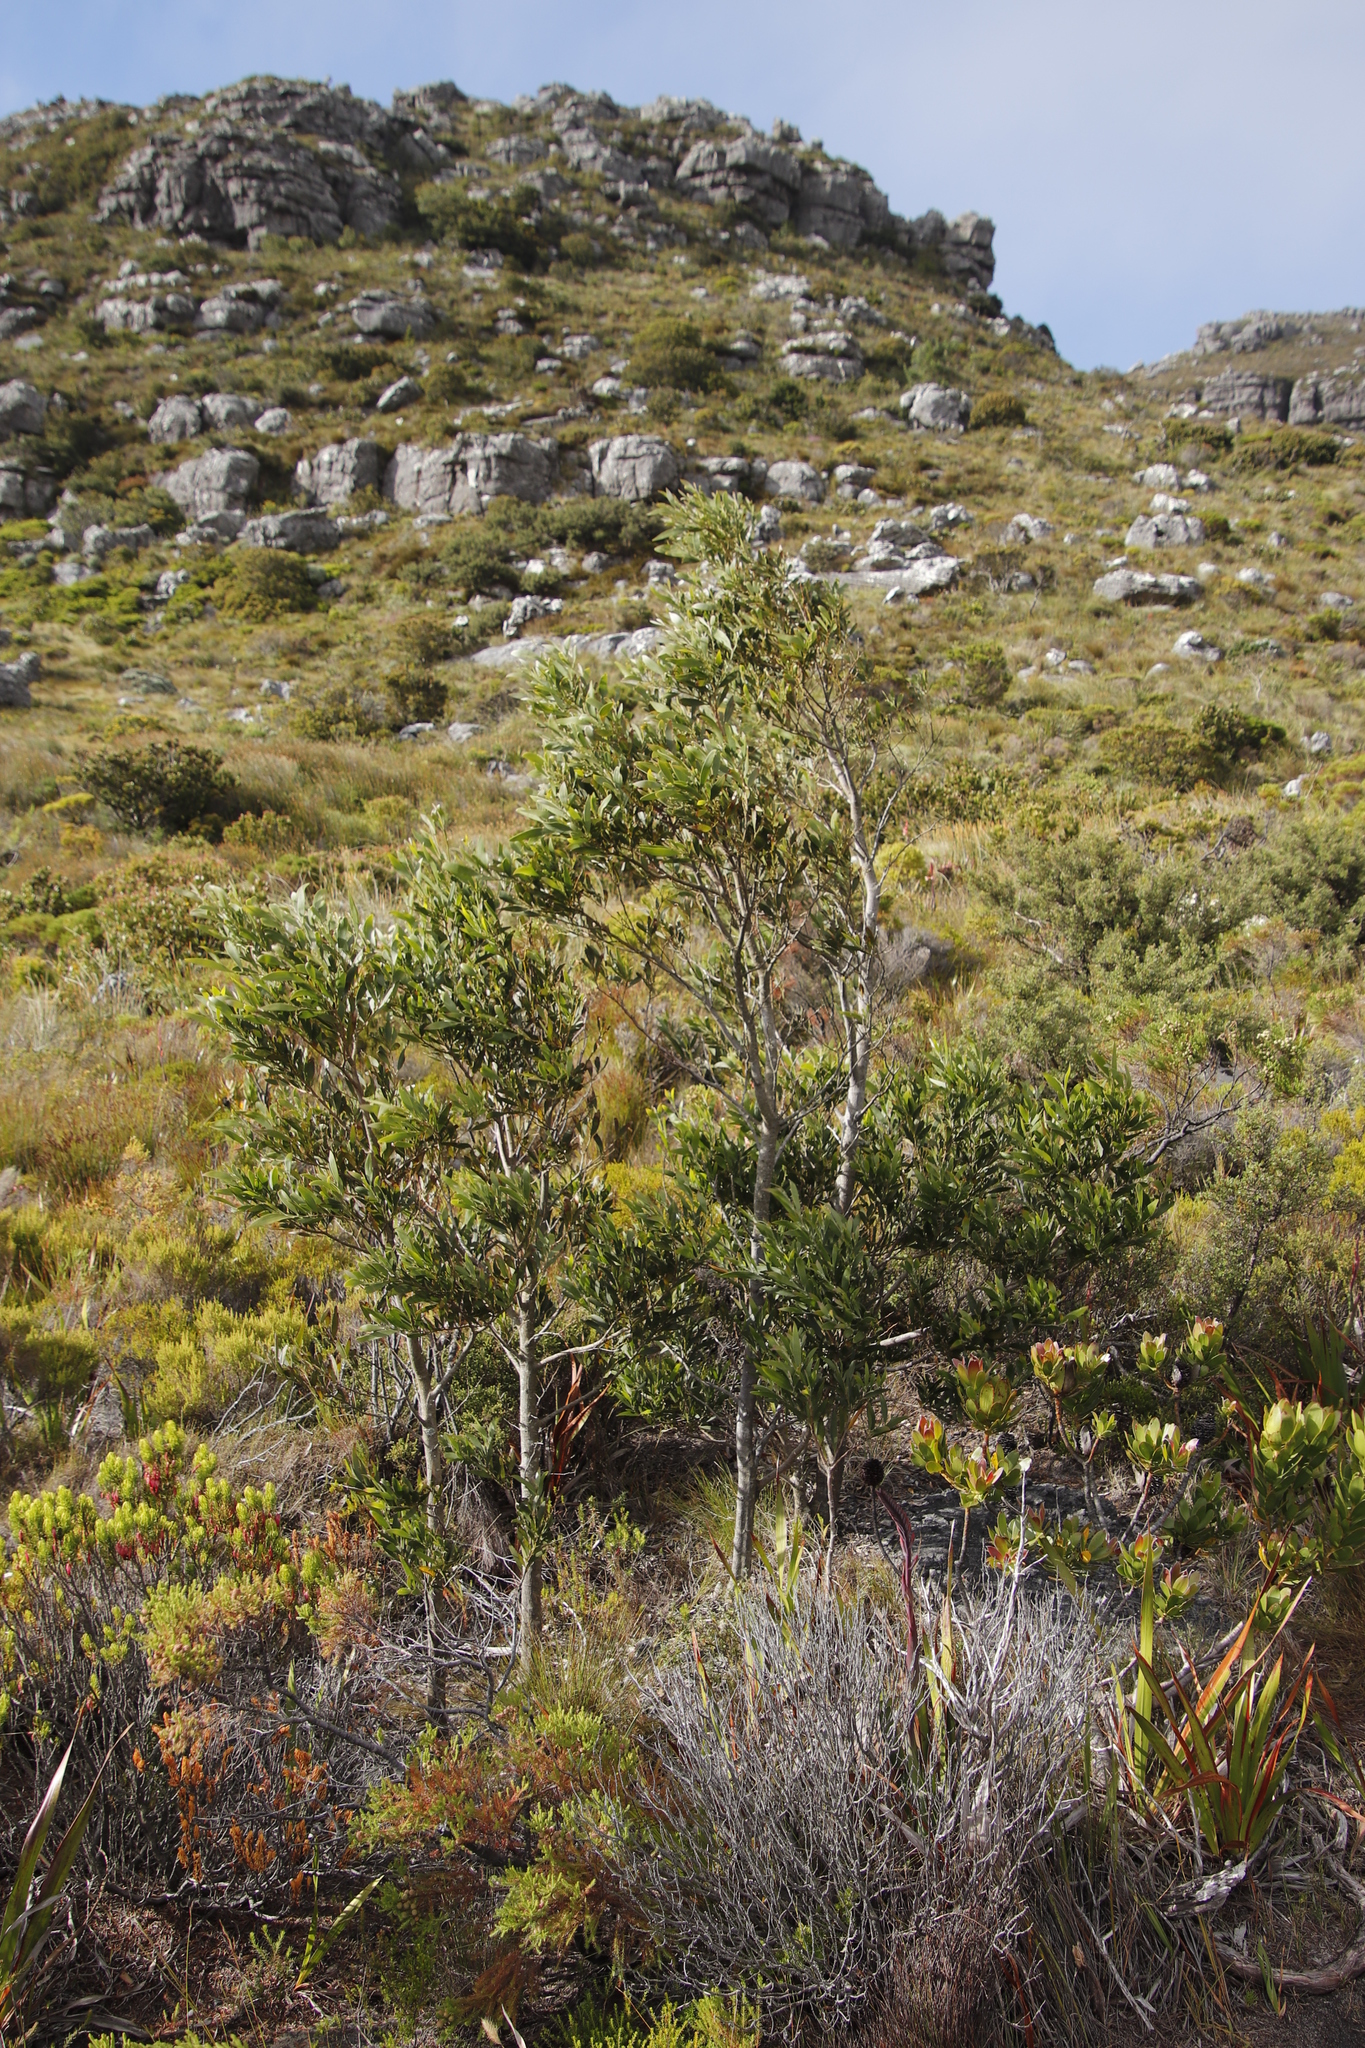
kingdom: Plantae
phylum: Tracheophyta
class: Magnoliopsida
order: Fabales
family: Fabaceae
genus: Acacia
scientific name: Acacia melanoxylon
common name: Blackwood
